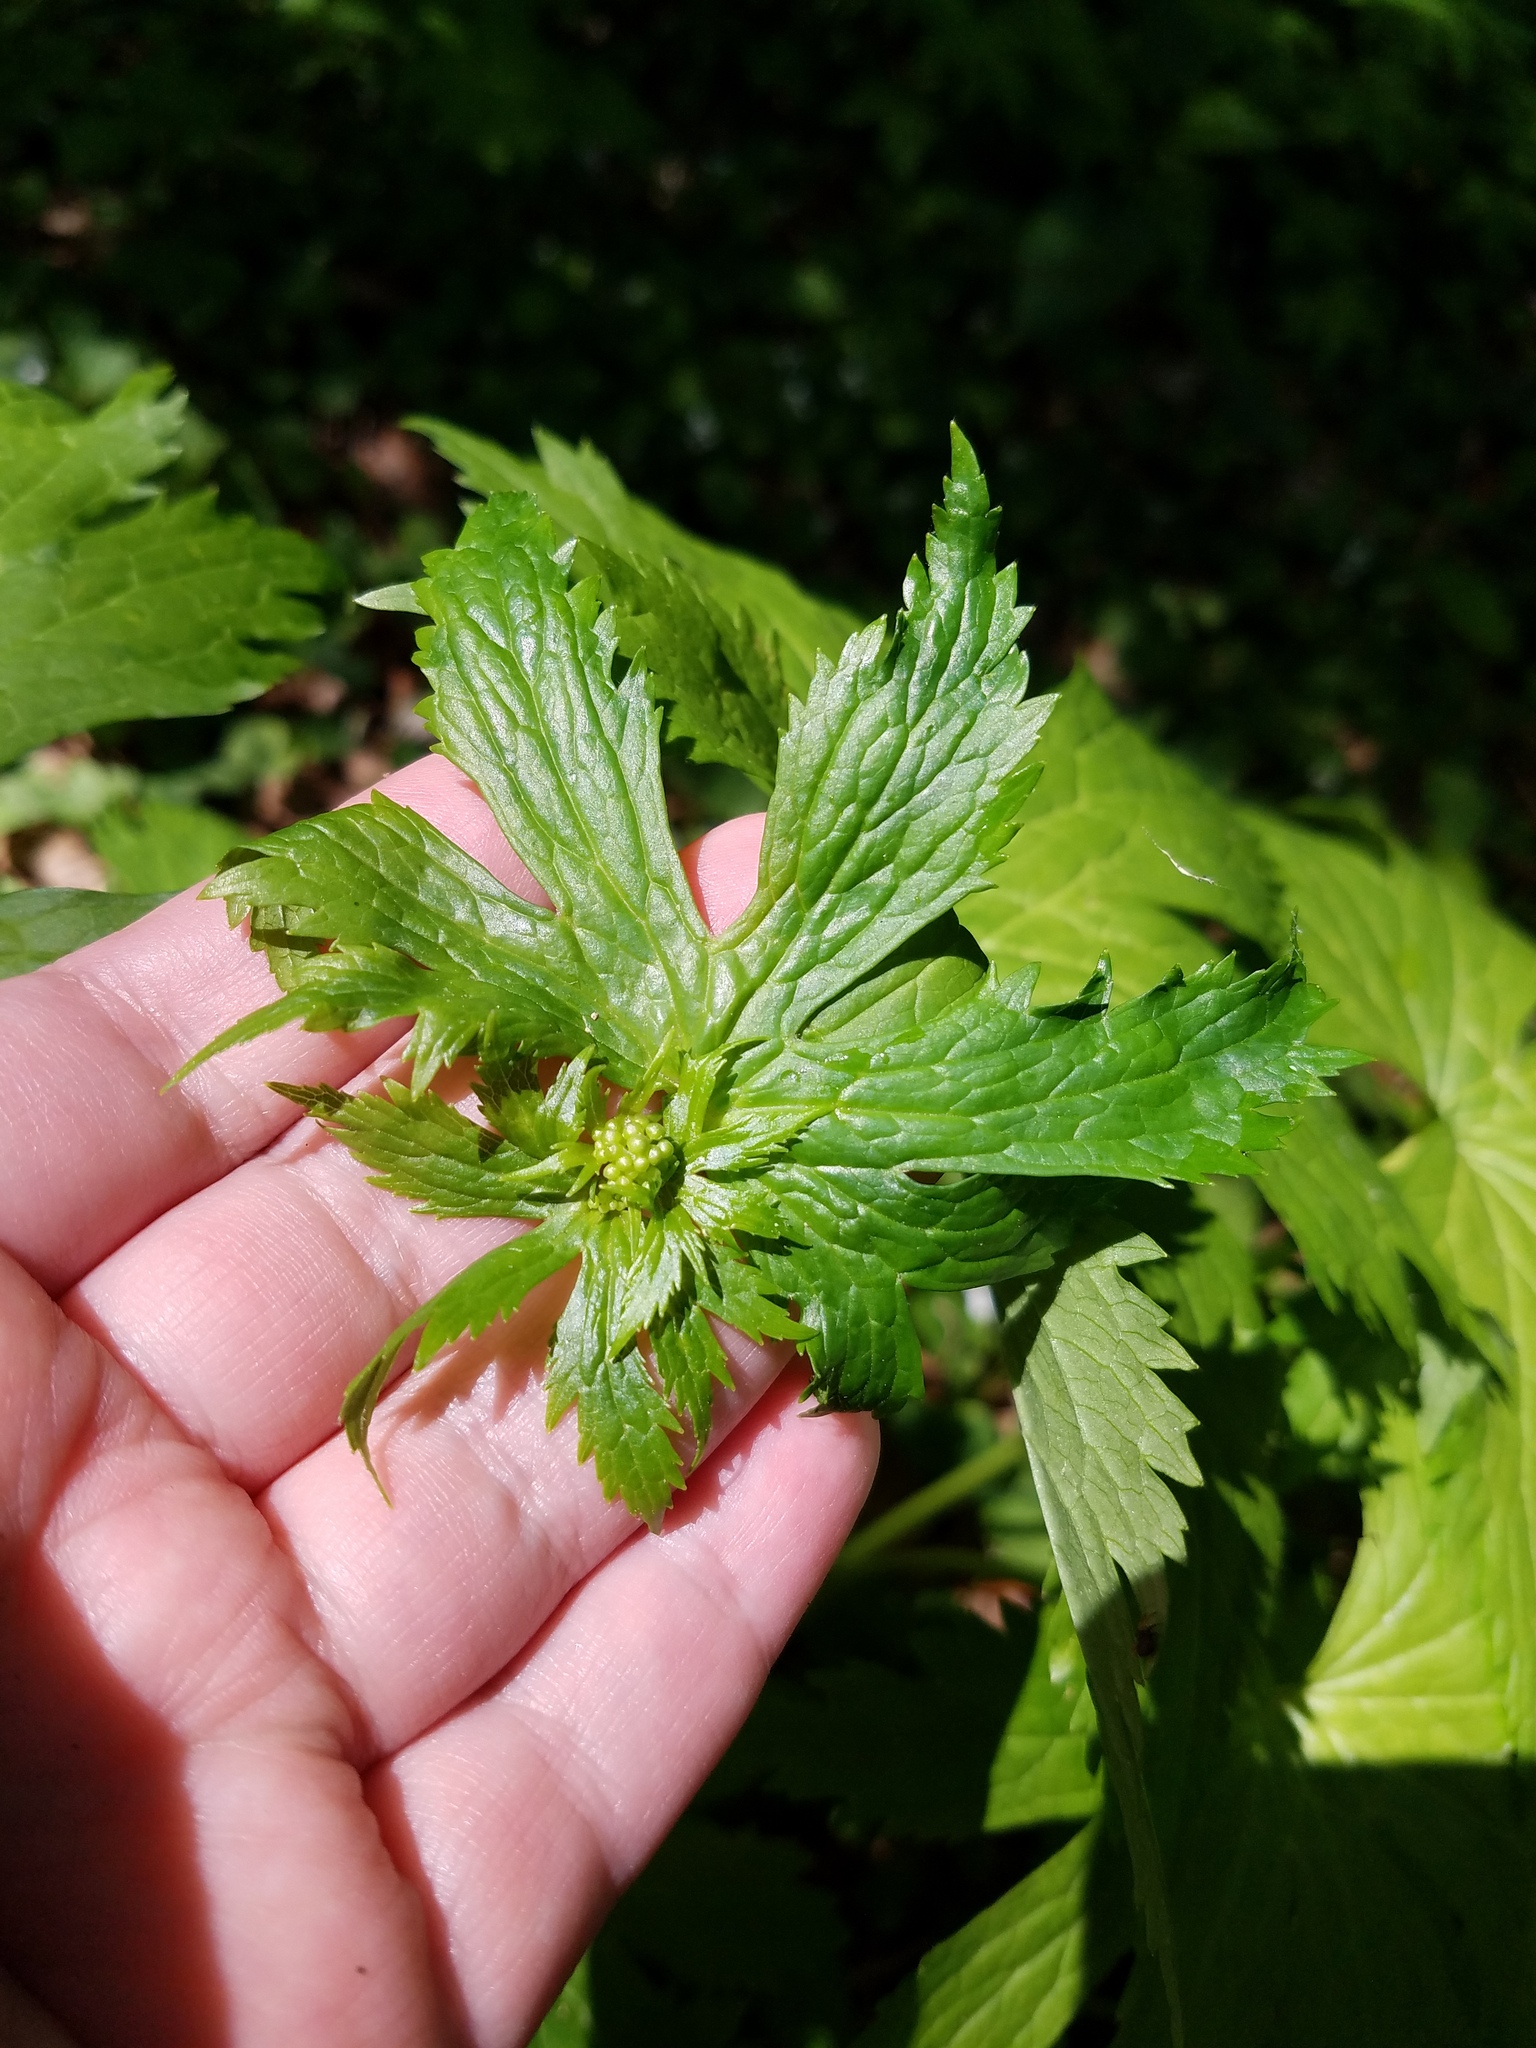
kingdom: Plantae
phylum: Tracheophyta
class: Magnoliopsida
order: Ranunculales
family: Ranunculaceae
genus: Trautvetteria
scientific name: Trautvetteria carolinensis
